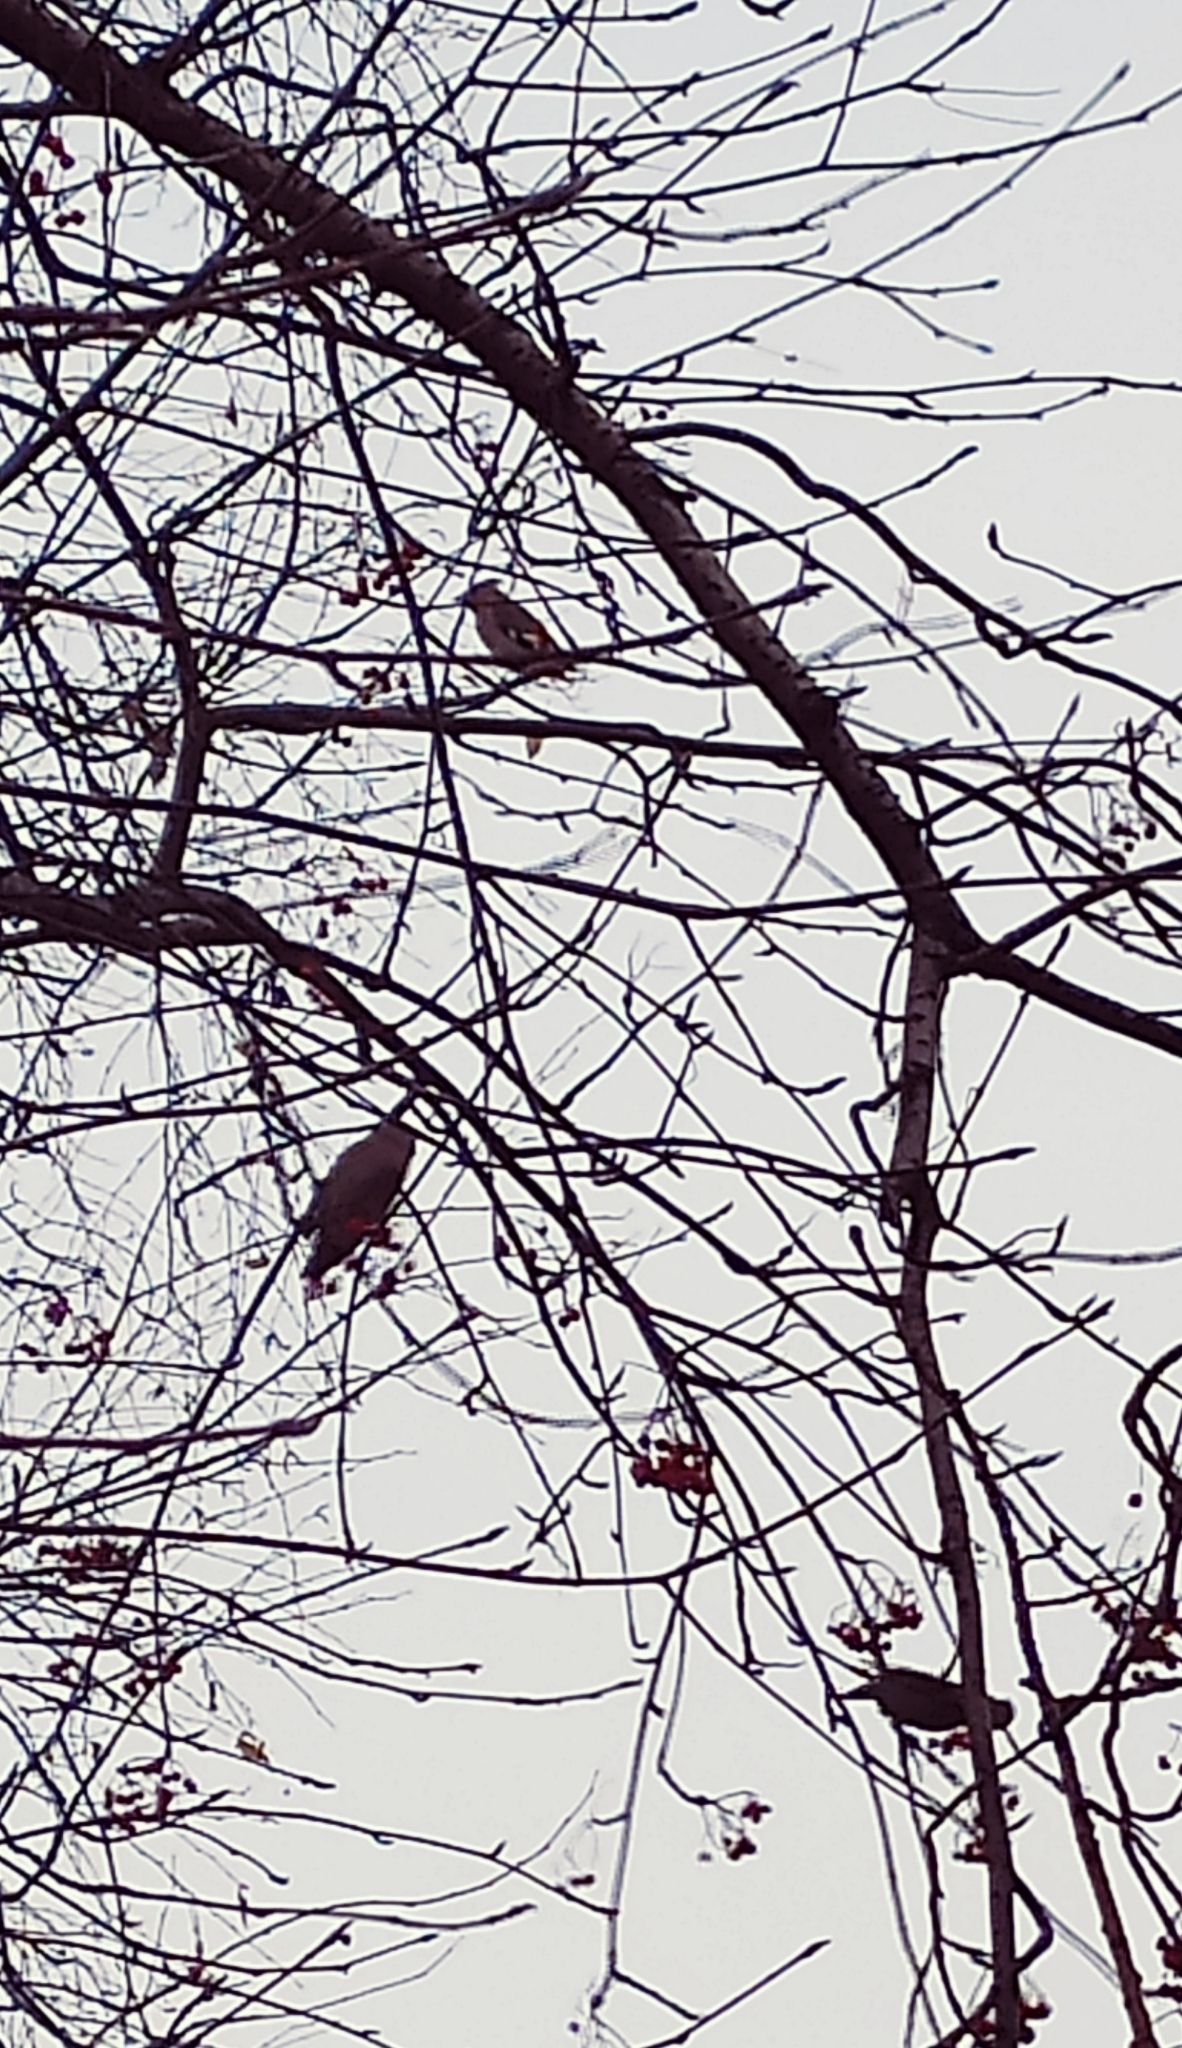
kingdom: Animalia
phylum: Chordata
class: Aves
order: Passeriformes
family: Bombycillidae
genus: Bombycilla
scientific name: Bombycilla garrulus
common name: Bohemian waxwing
